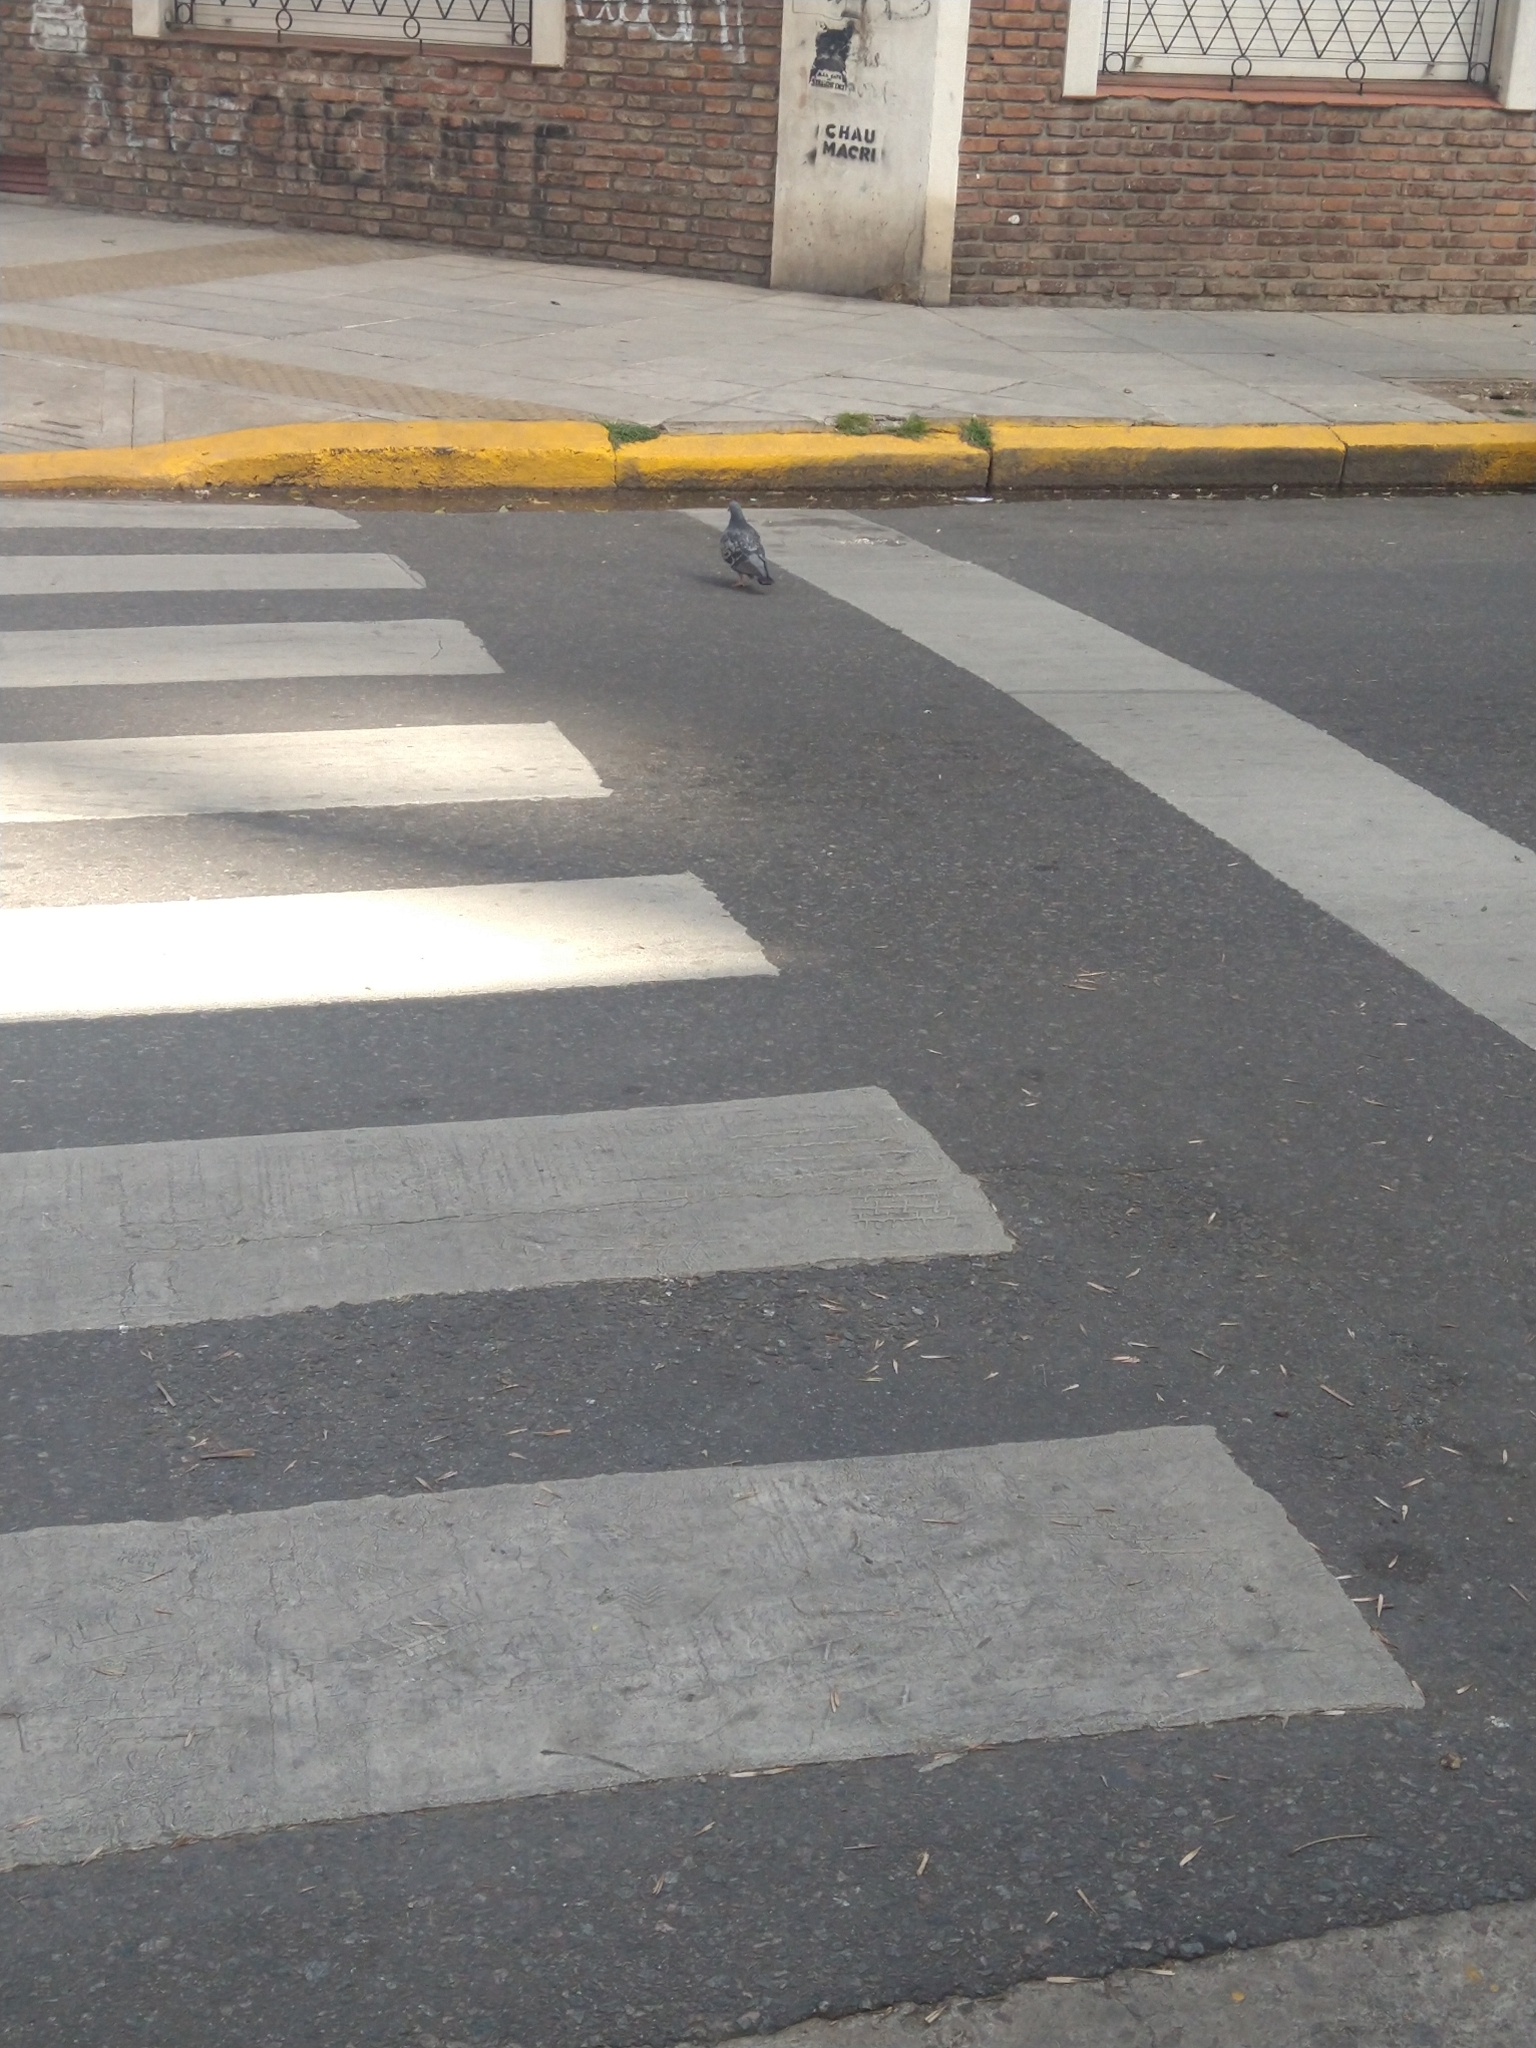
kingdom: Animalia
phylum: Chordata
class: Aves
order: Columbiformes
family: Columbidae
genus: Columba
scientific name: Columba livia
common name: Rock pigeon
